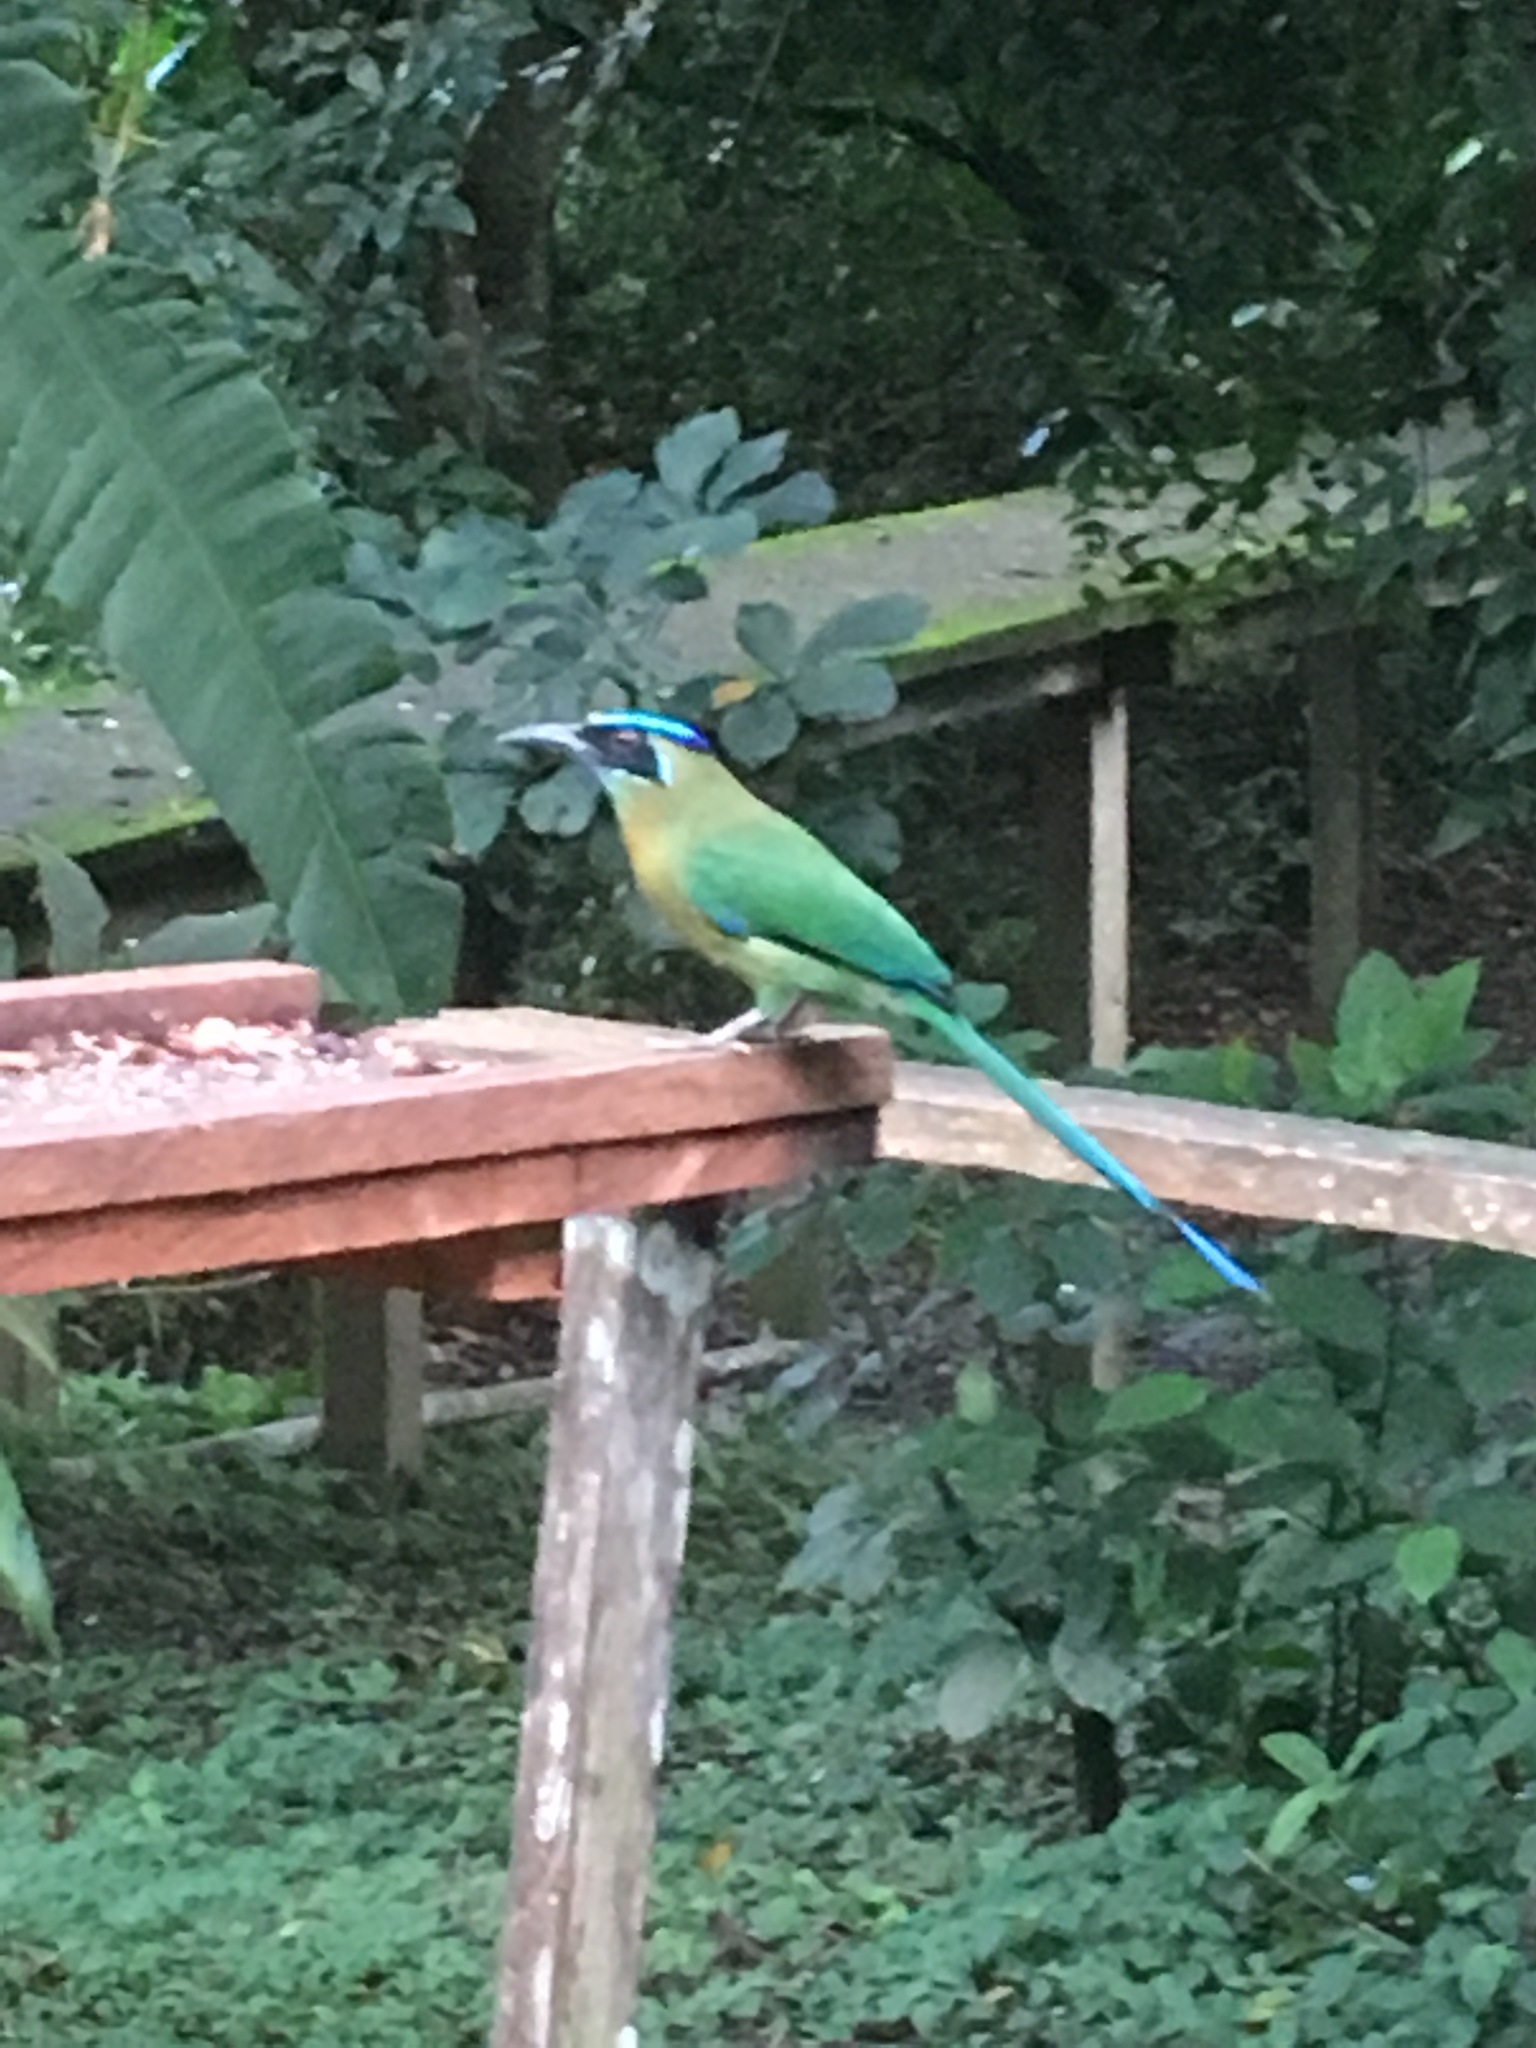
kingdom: Animalia
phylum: Chordata
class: Aves
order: Coraciiformes
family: Momotidae
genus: Momotus
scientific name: Momotus lessonii
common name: Lesson's motmot
